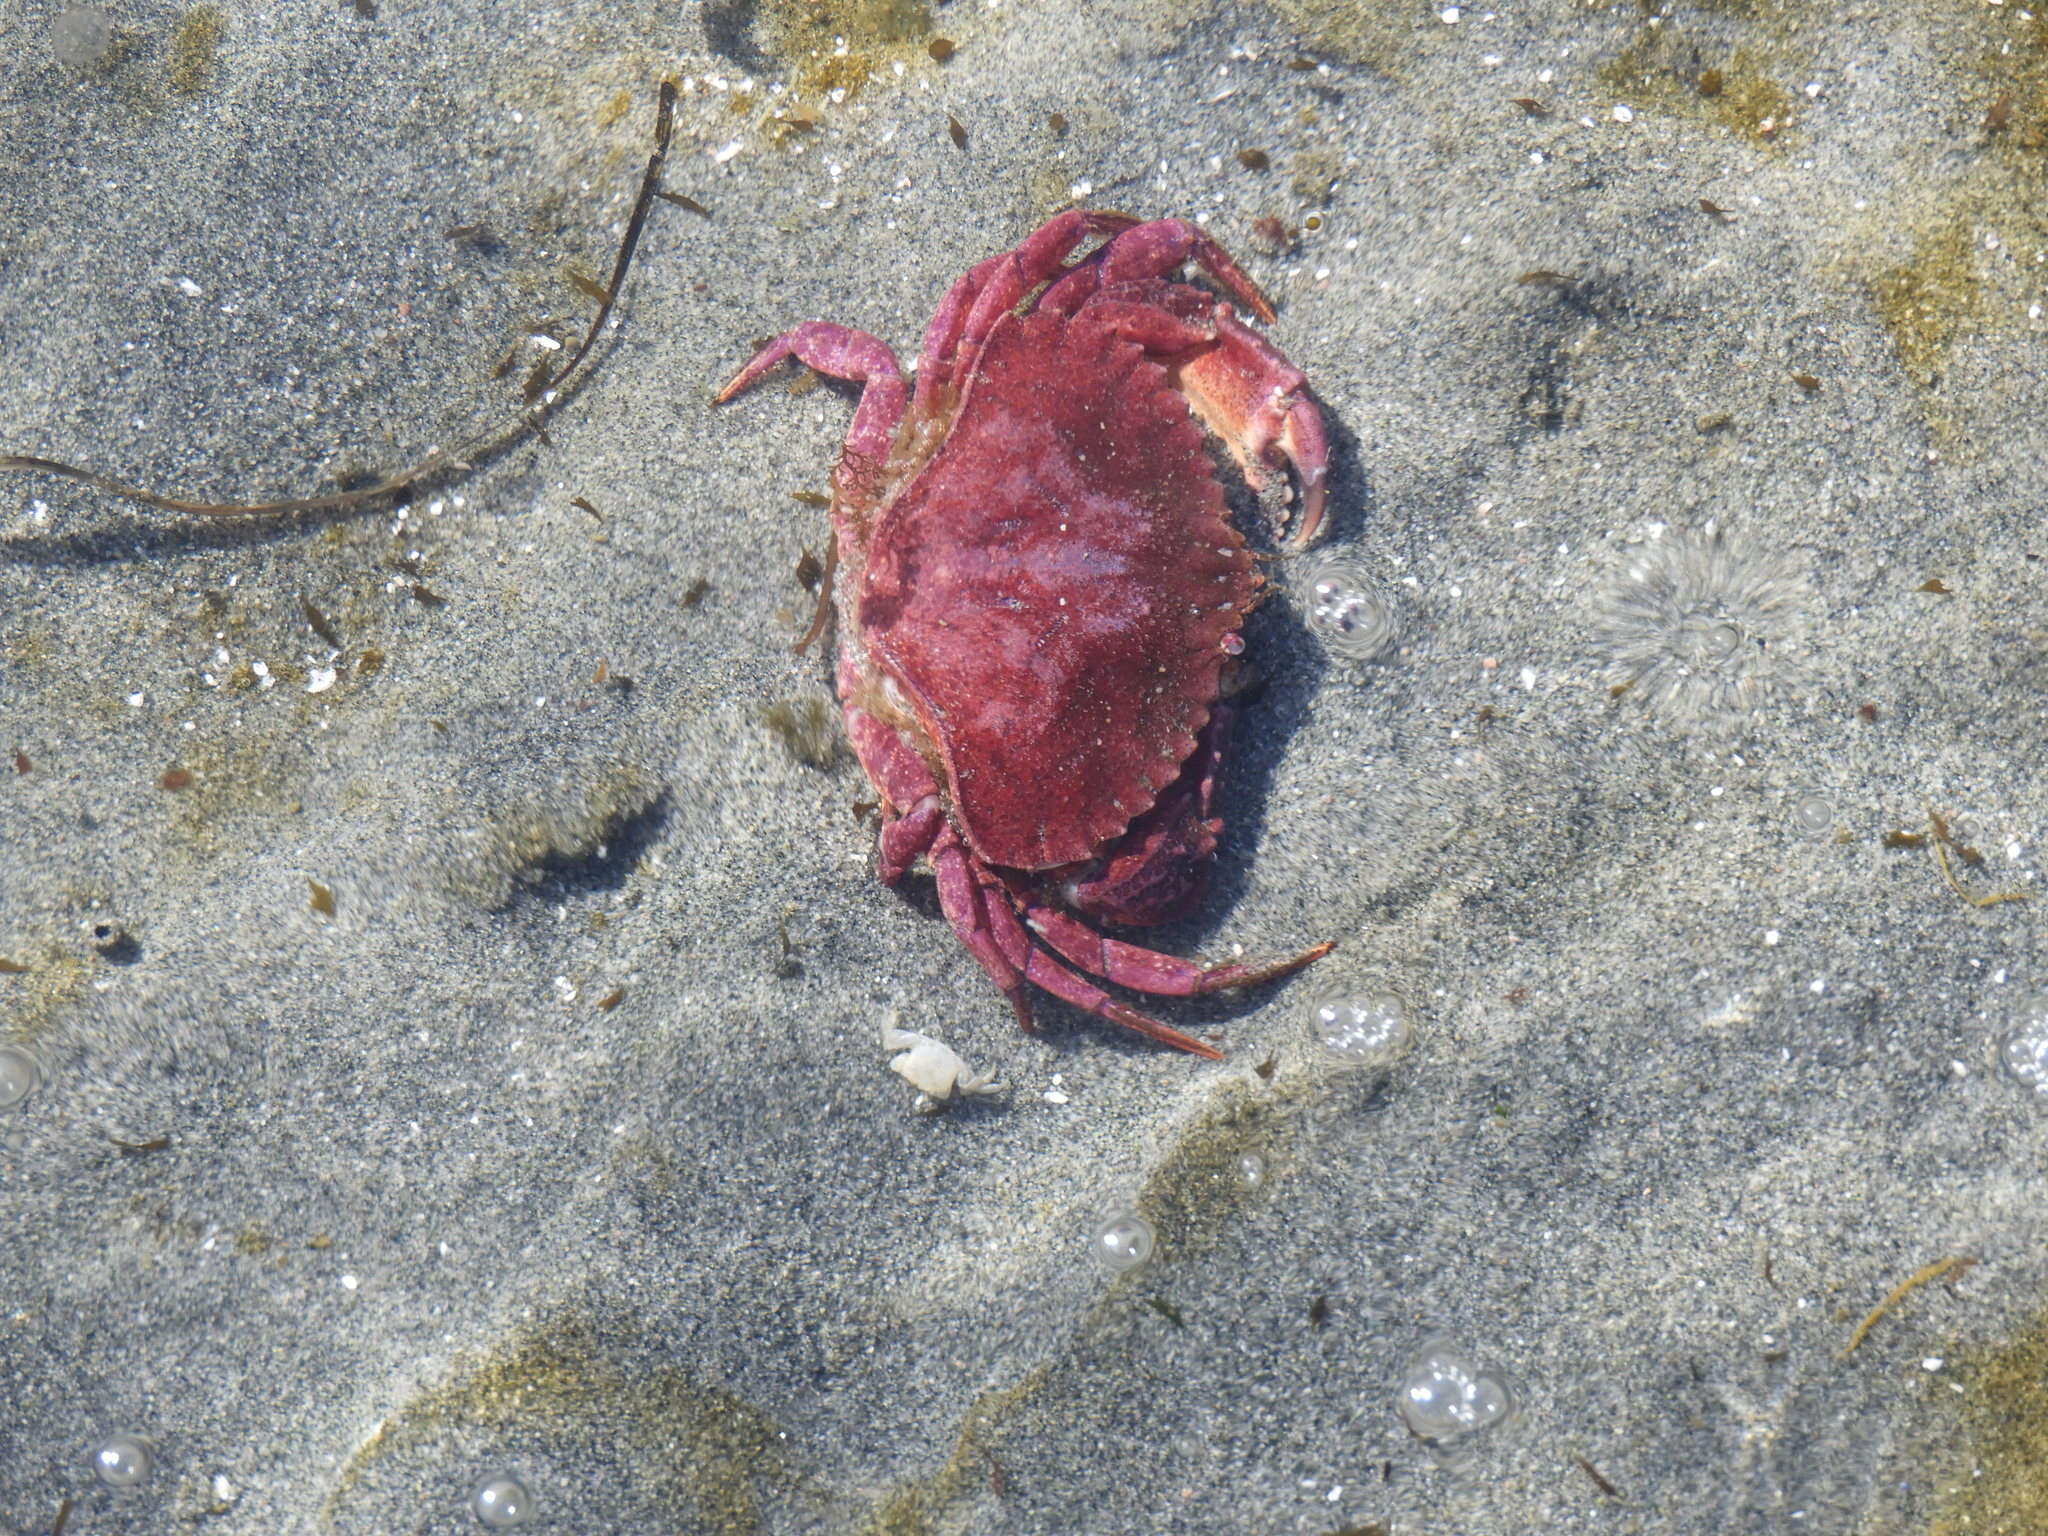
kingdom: Animalia
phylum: Arthropoda
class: Malacostraca
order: Decapoda
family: Cancridae
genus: Cancer
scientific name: Cancer productus
